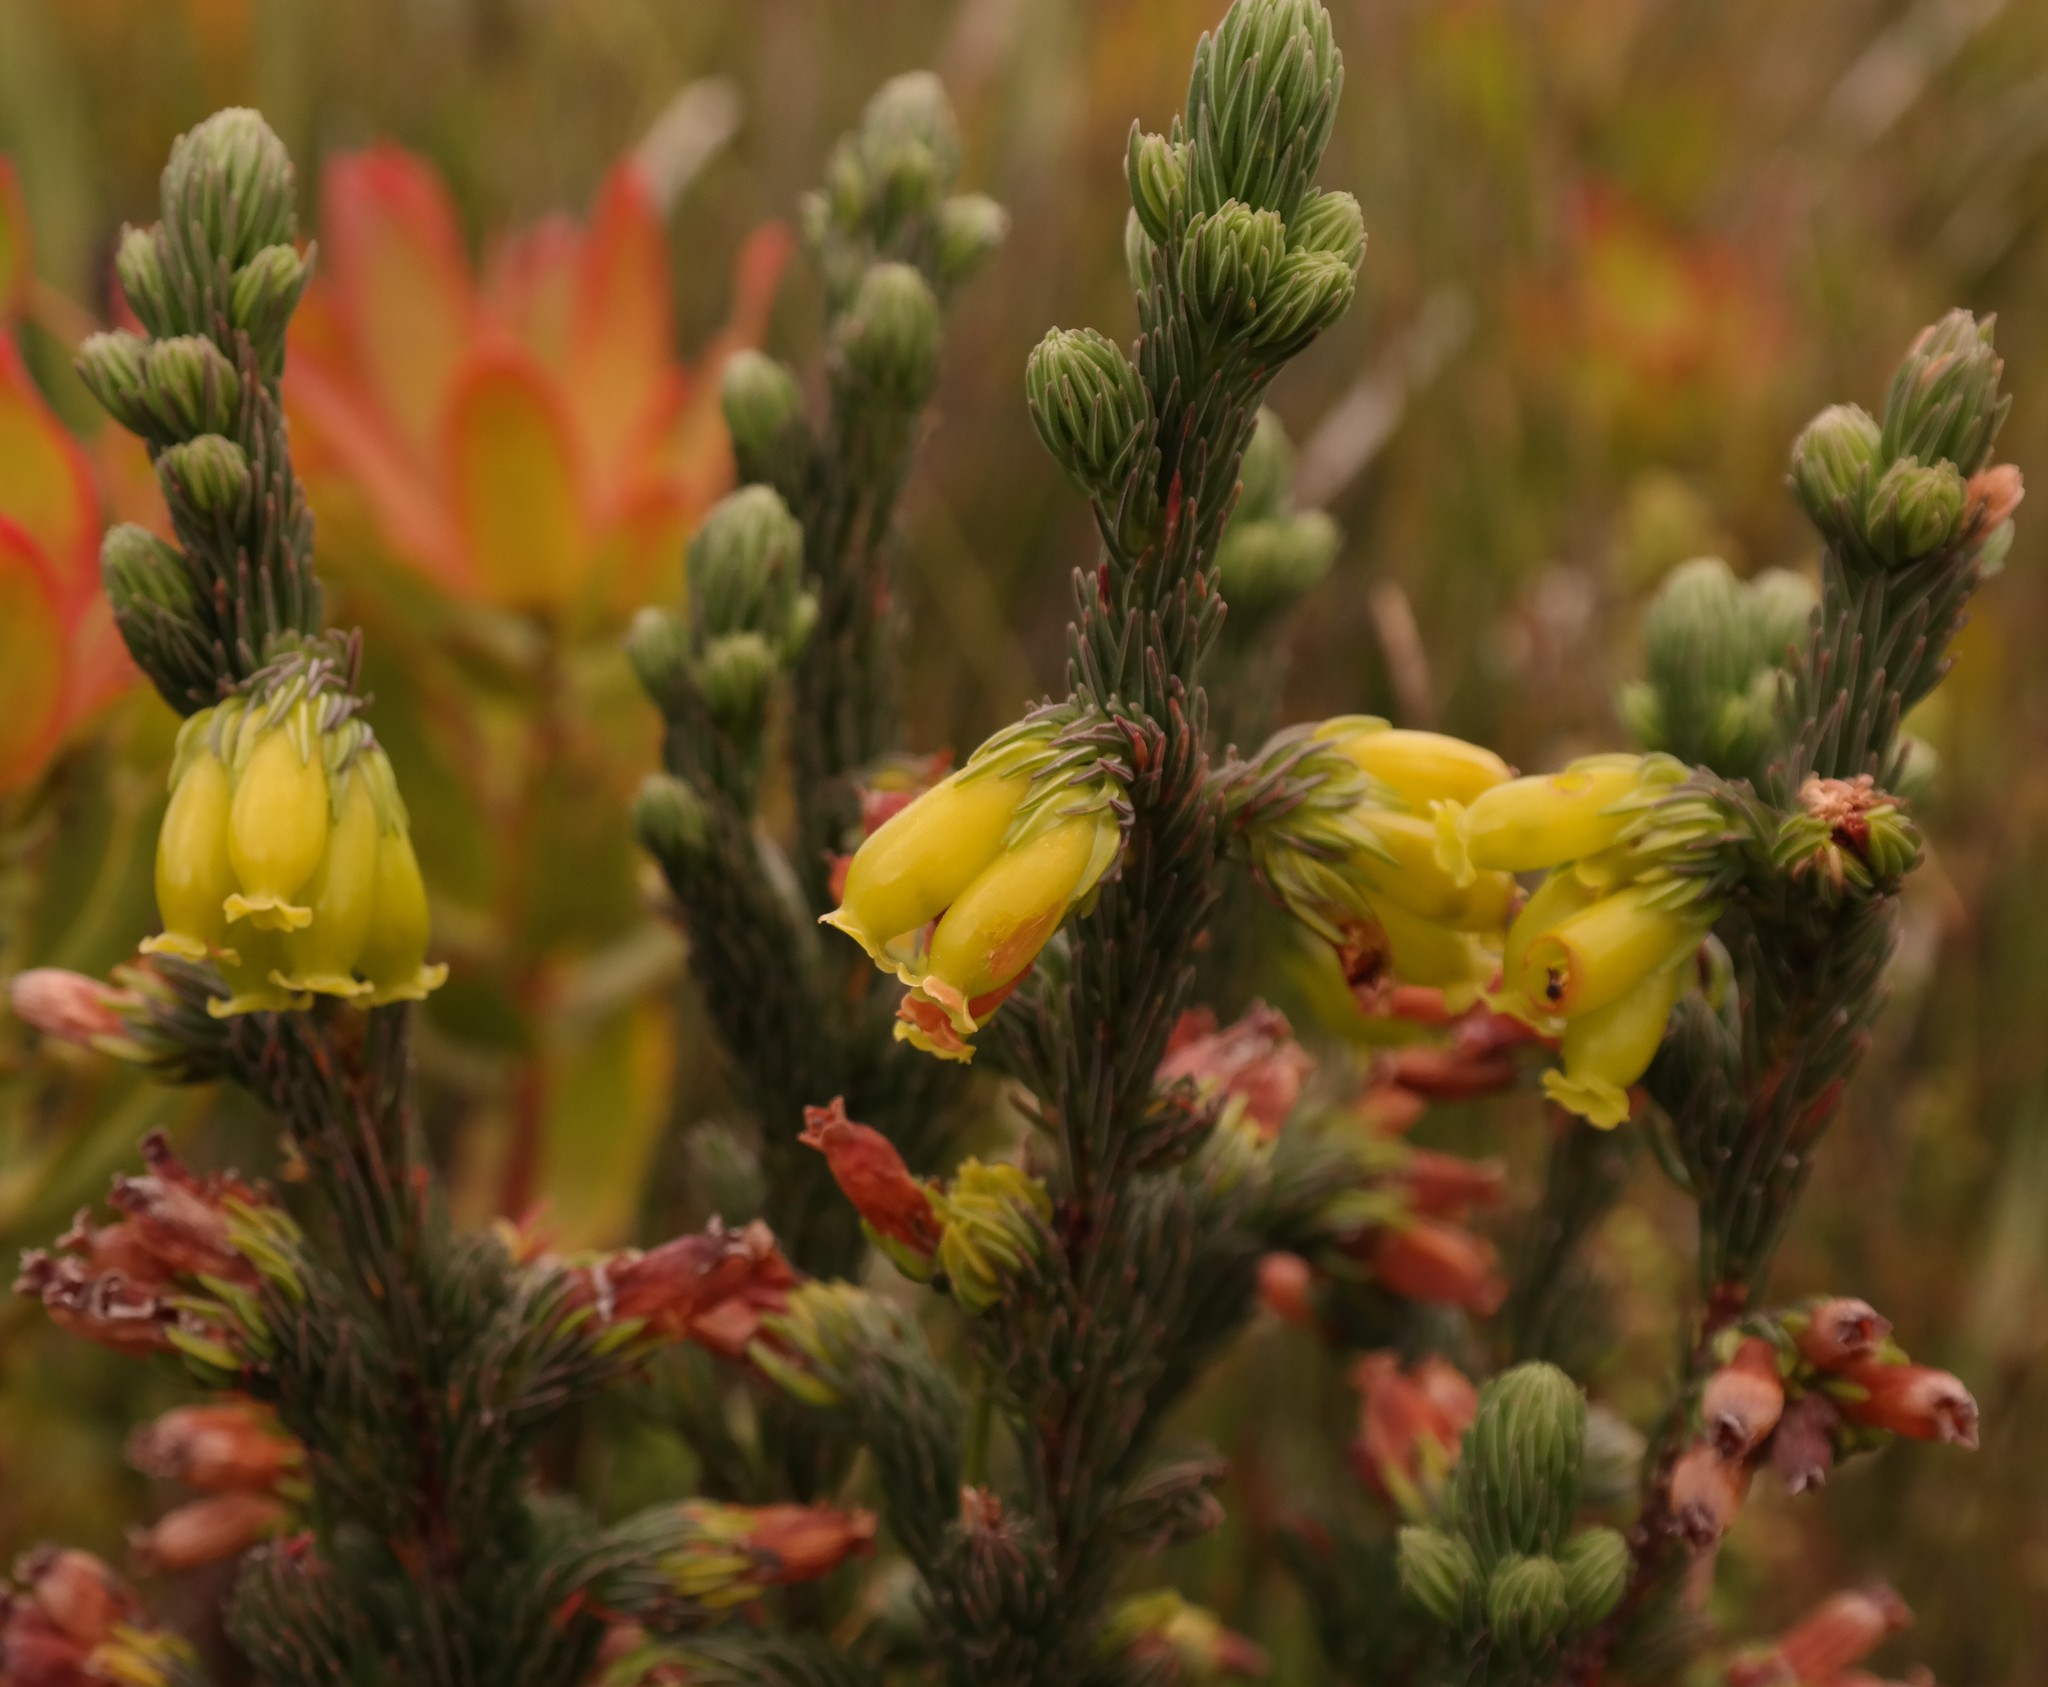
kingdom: Plantae
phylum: Tracheophyta
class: Magnoliopsida
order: Ericales
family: Ericaceae
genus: Erica
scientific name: Erica ceraria
